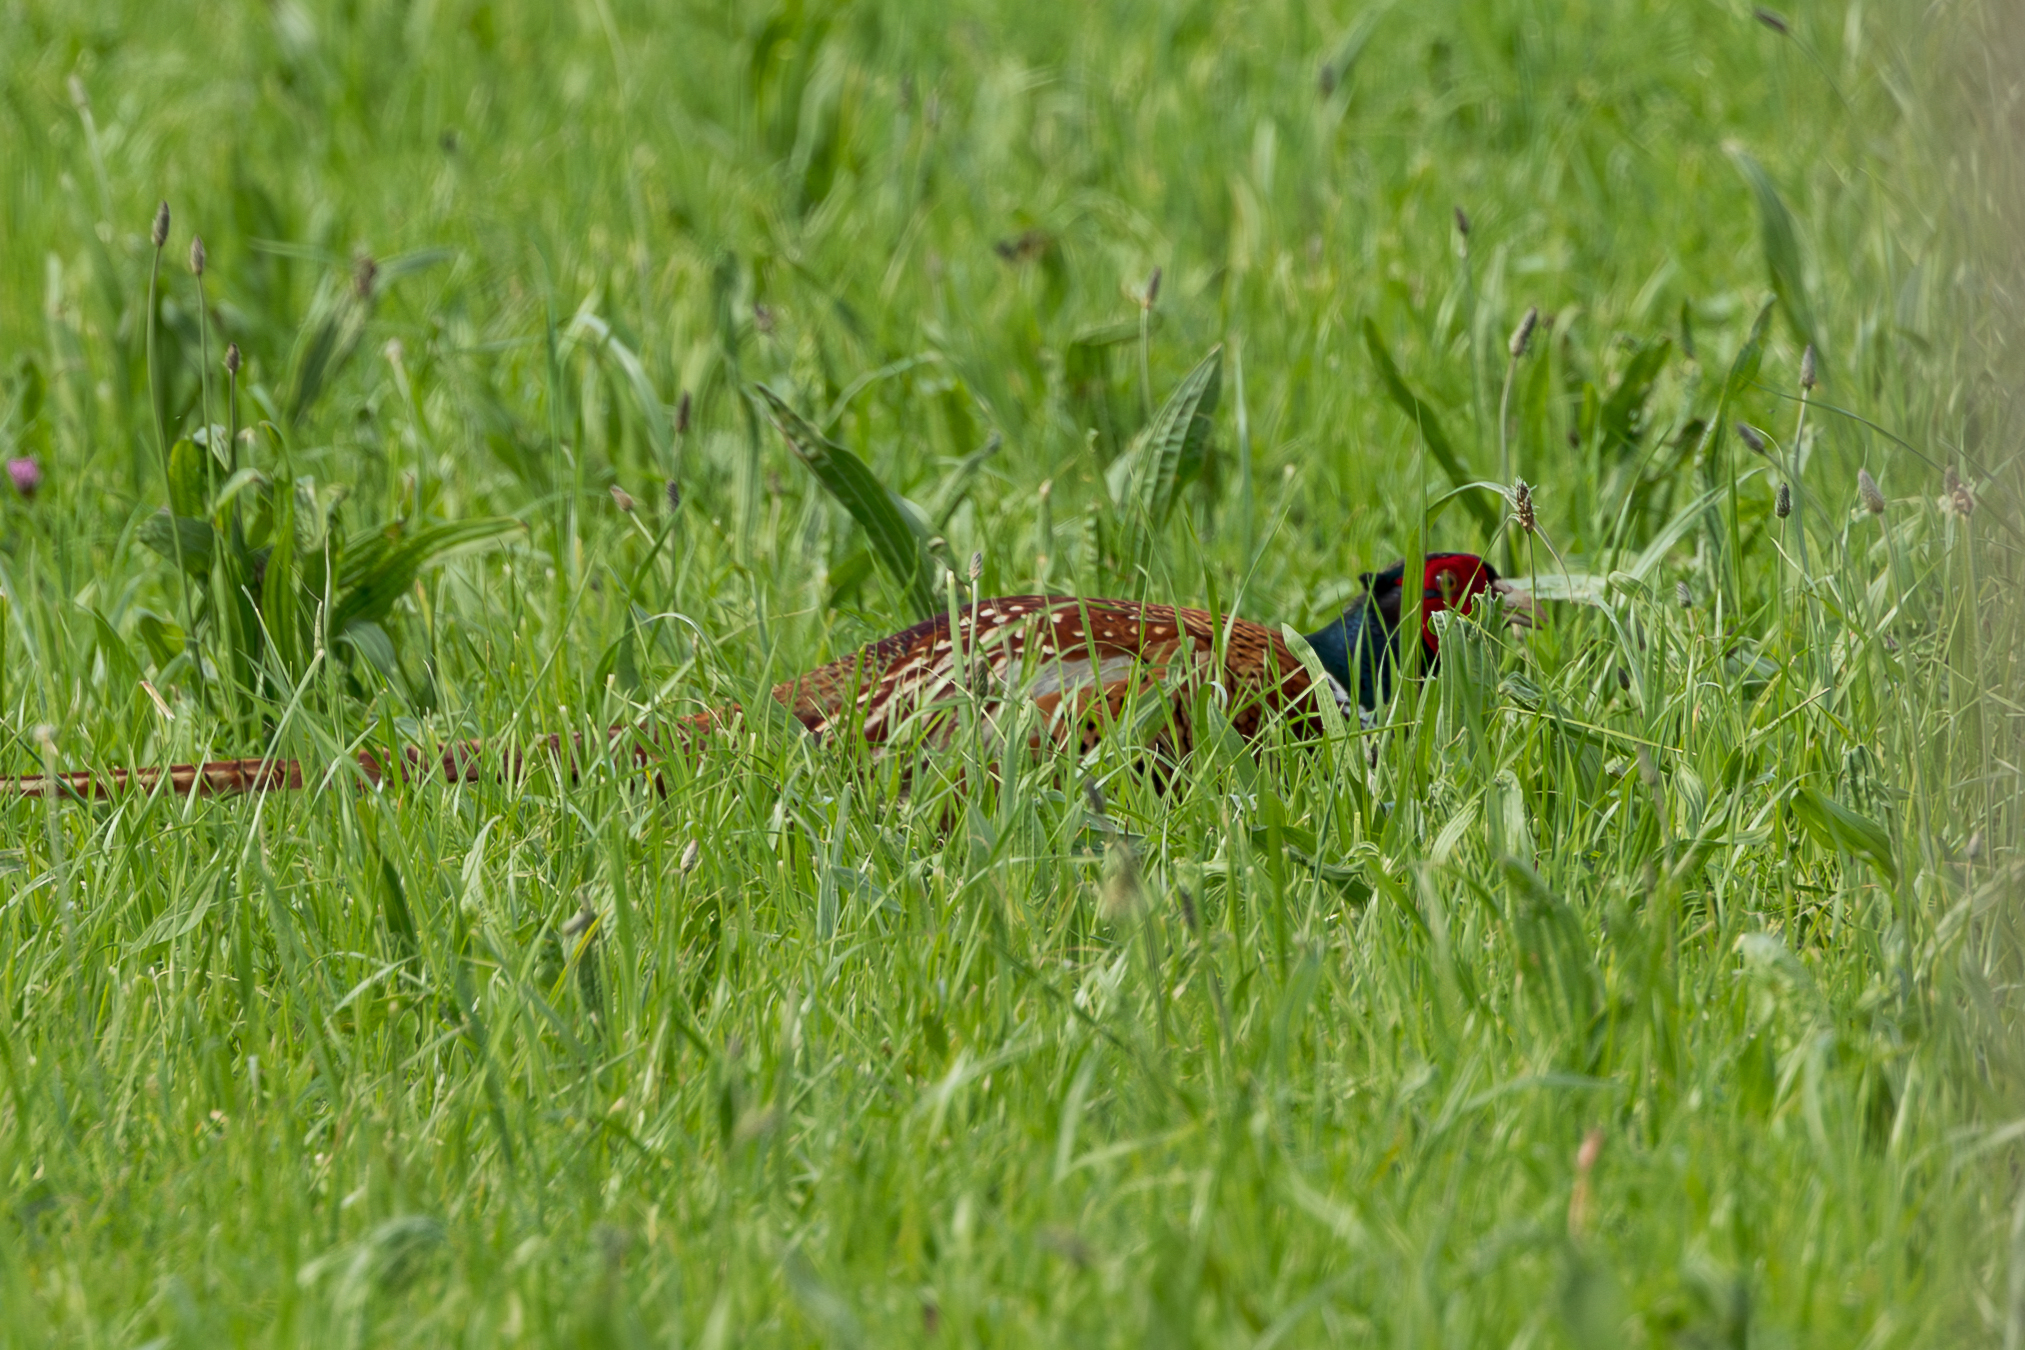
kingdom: Animalia
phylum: Chordata
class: Aves
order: Galliformes
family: Phasianidae
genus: Phasianus
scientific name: Phasianus colchicus
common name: Common pheasant
